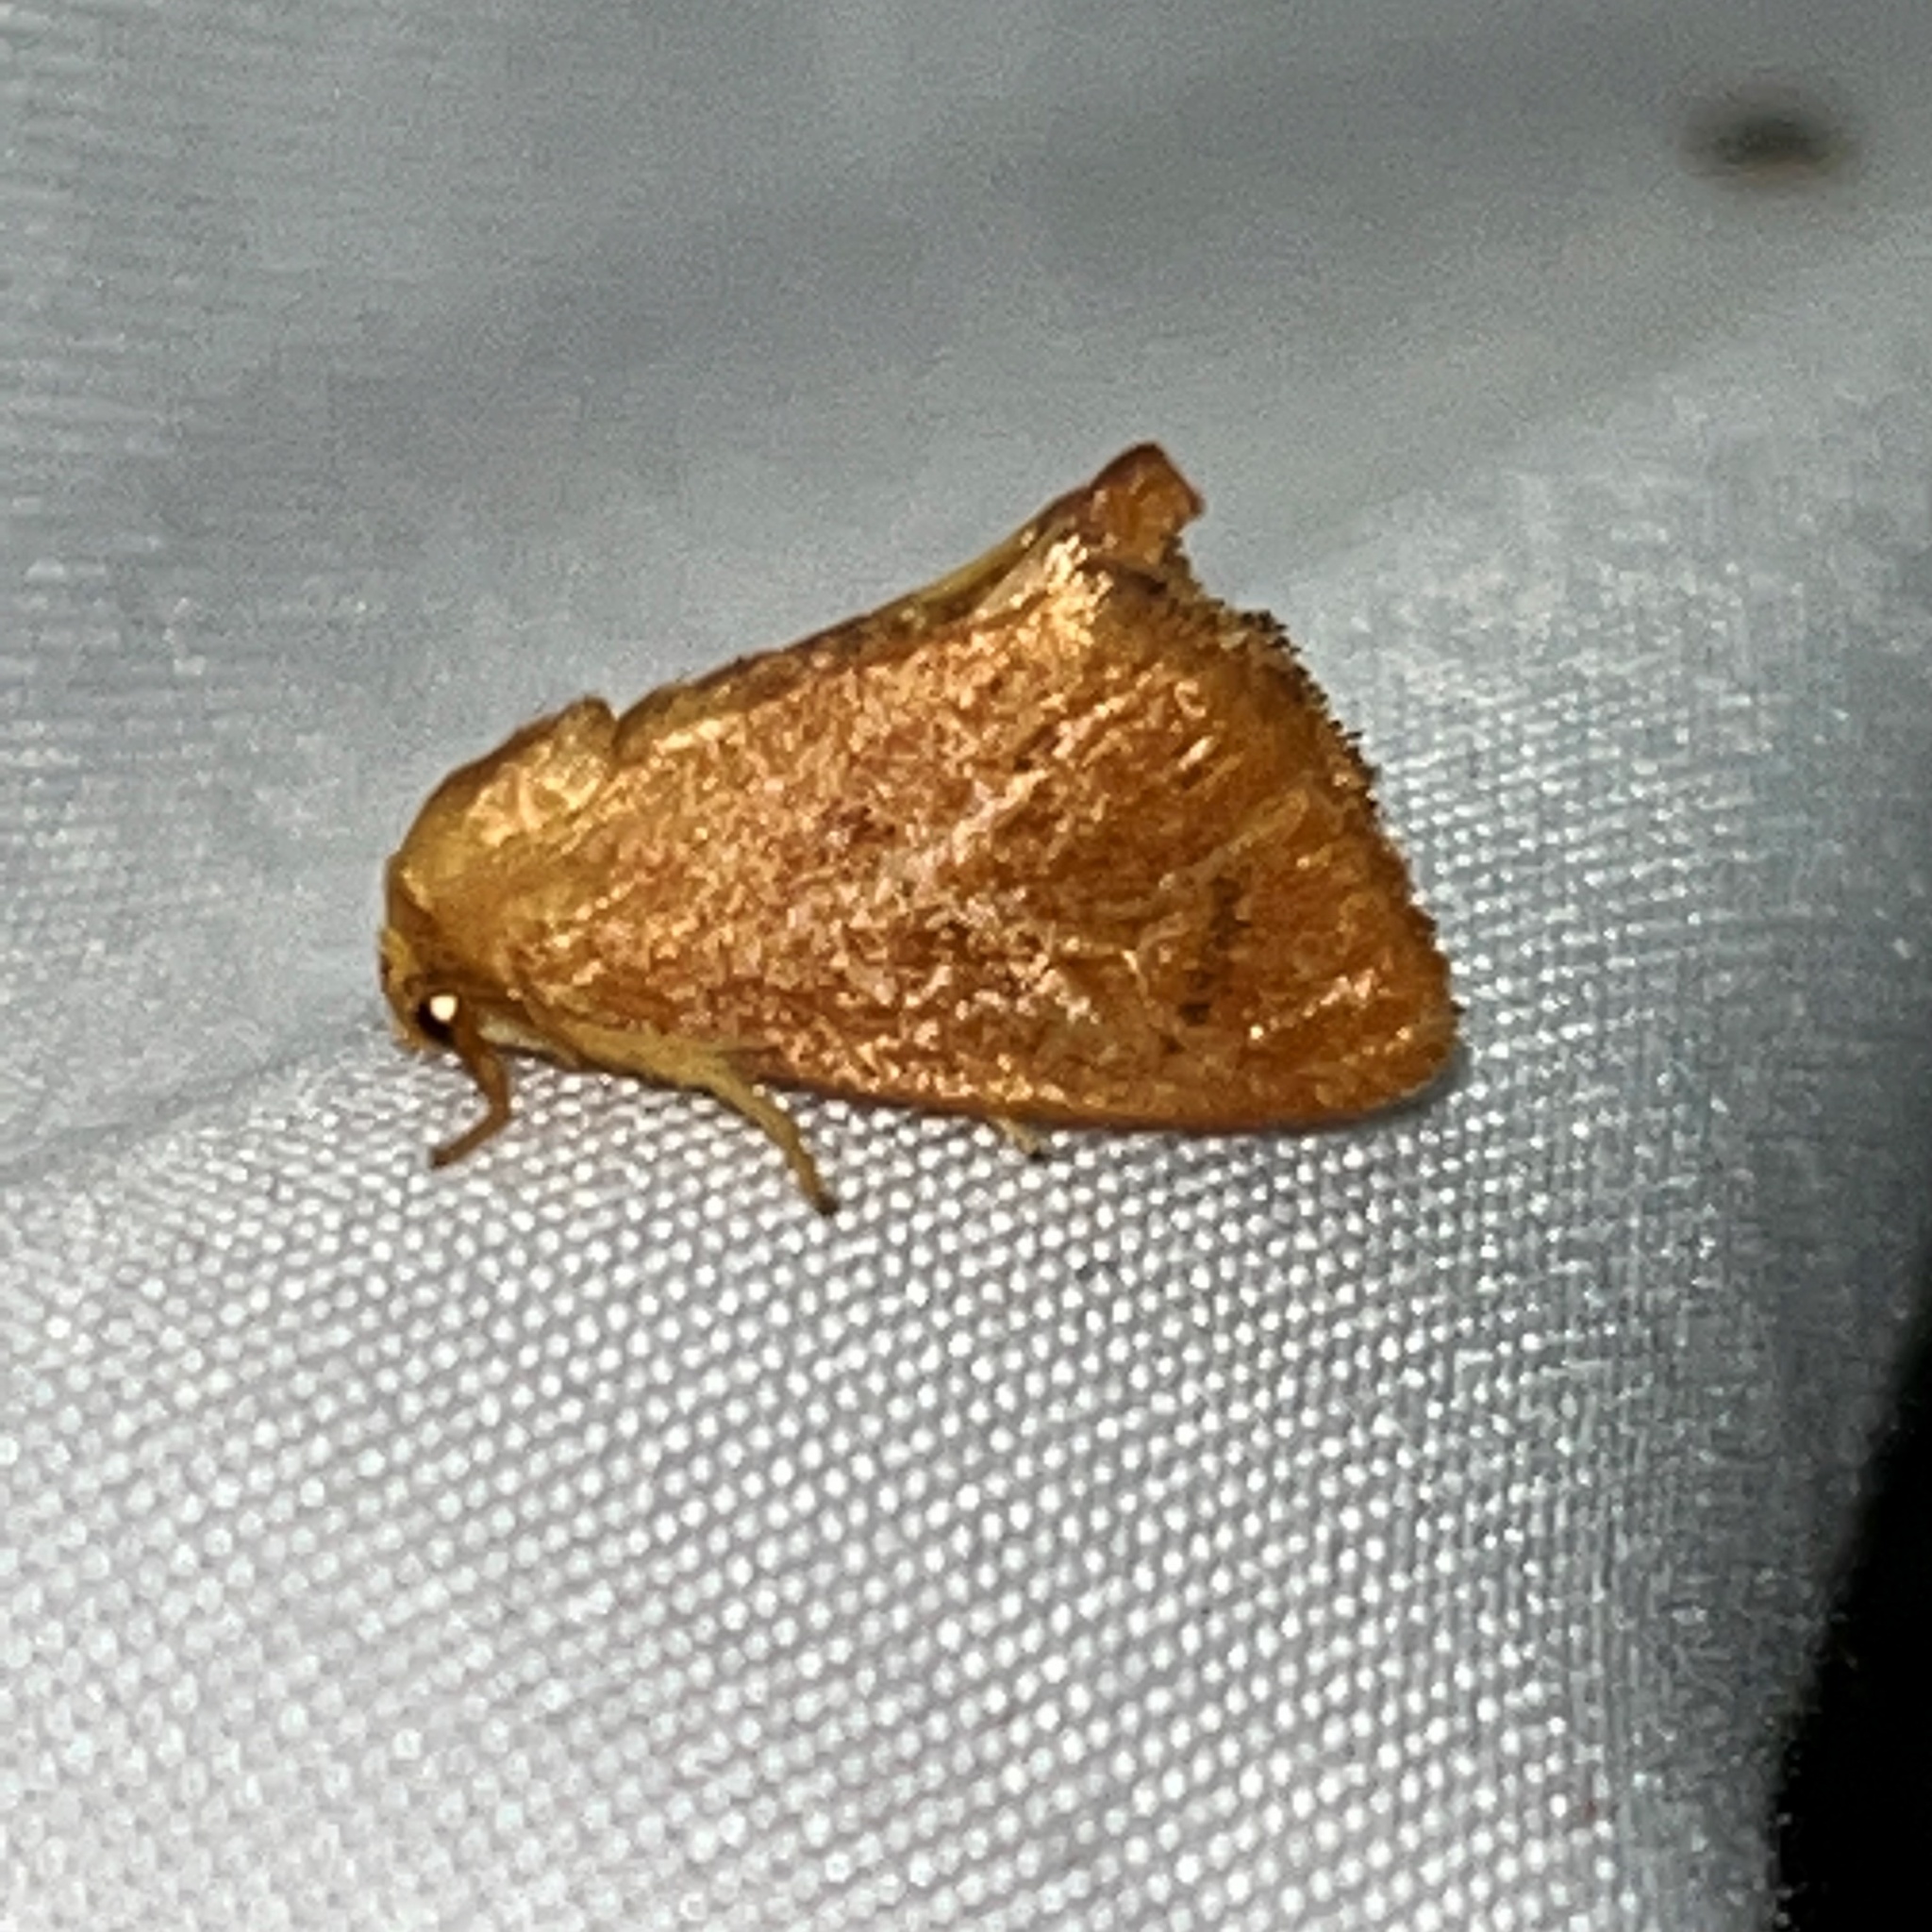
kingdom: Animalia
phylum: Arthropoda
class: Insecta
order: Lepidoptera
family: Limacodidae
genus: Tortricidia
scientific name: Tortricidia pallida
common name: Red-crossed button slug moth
